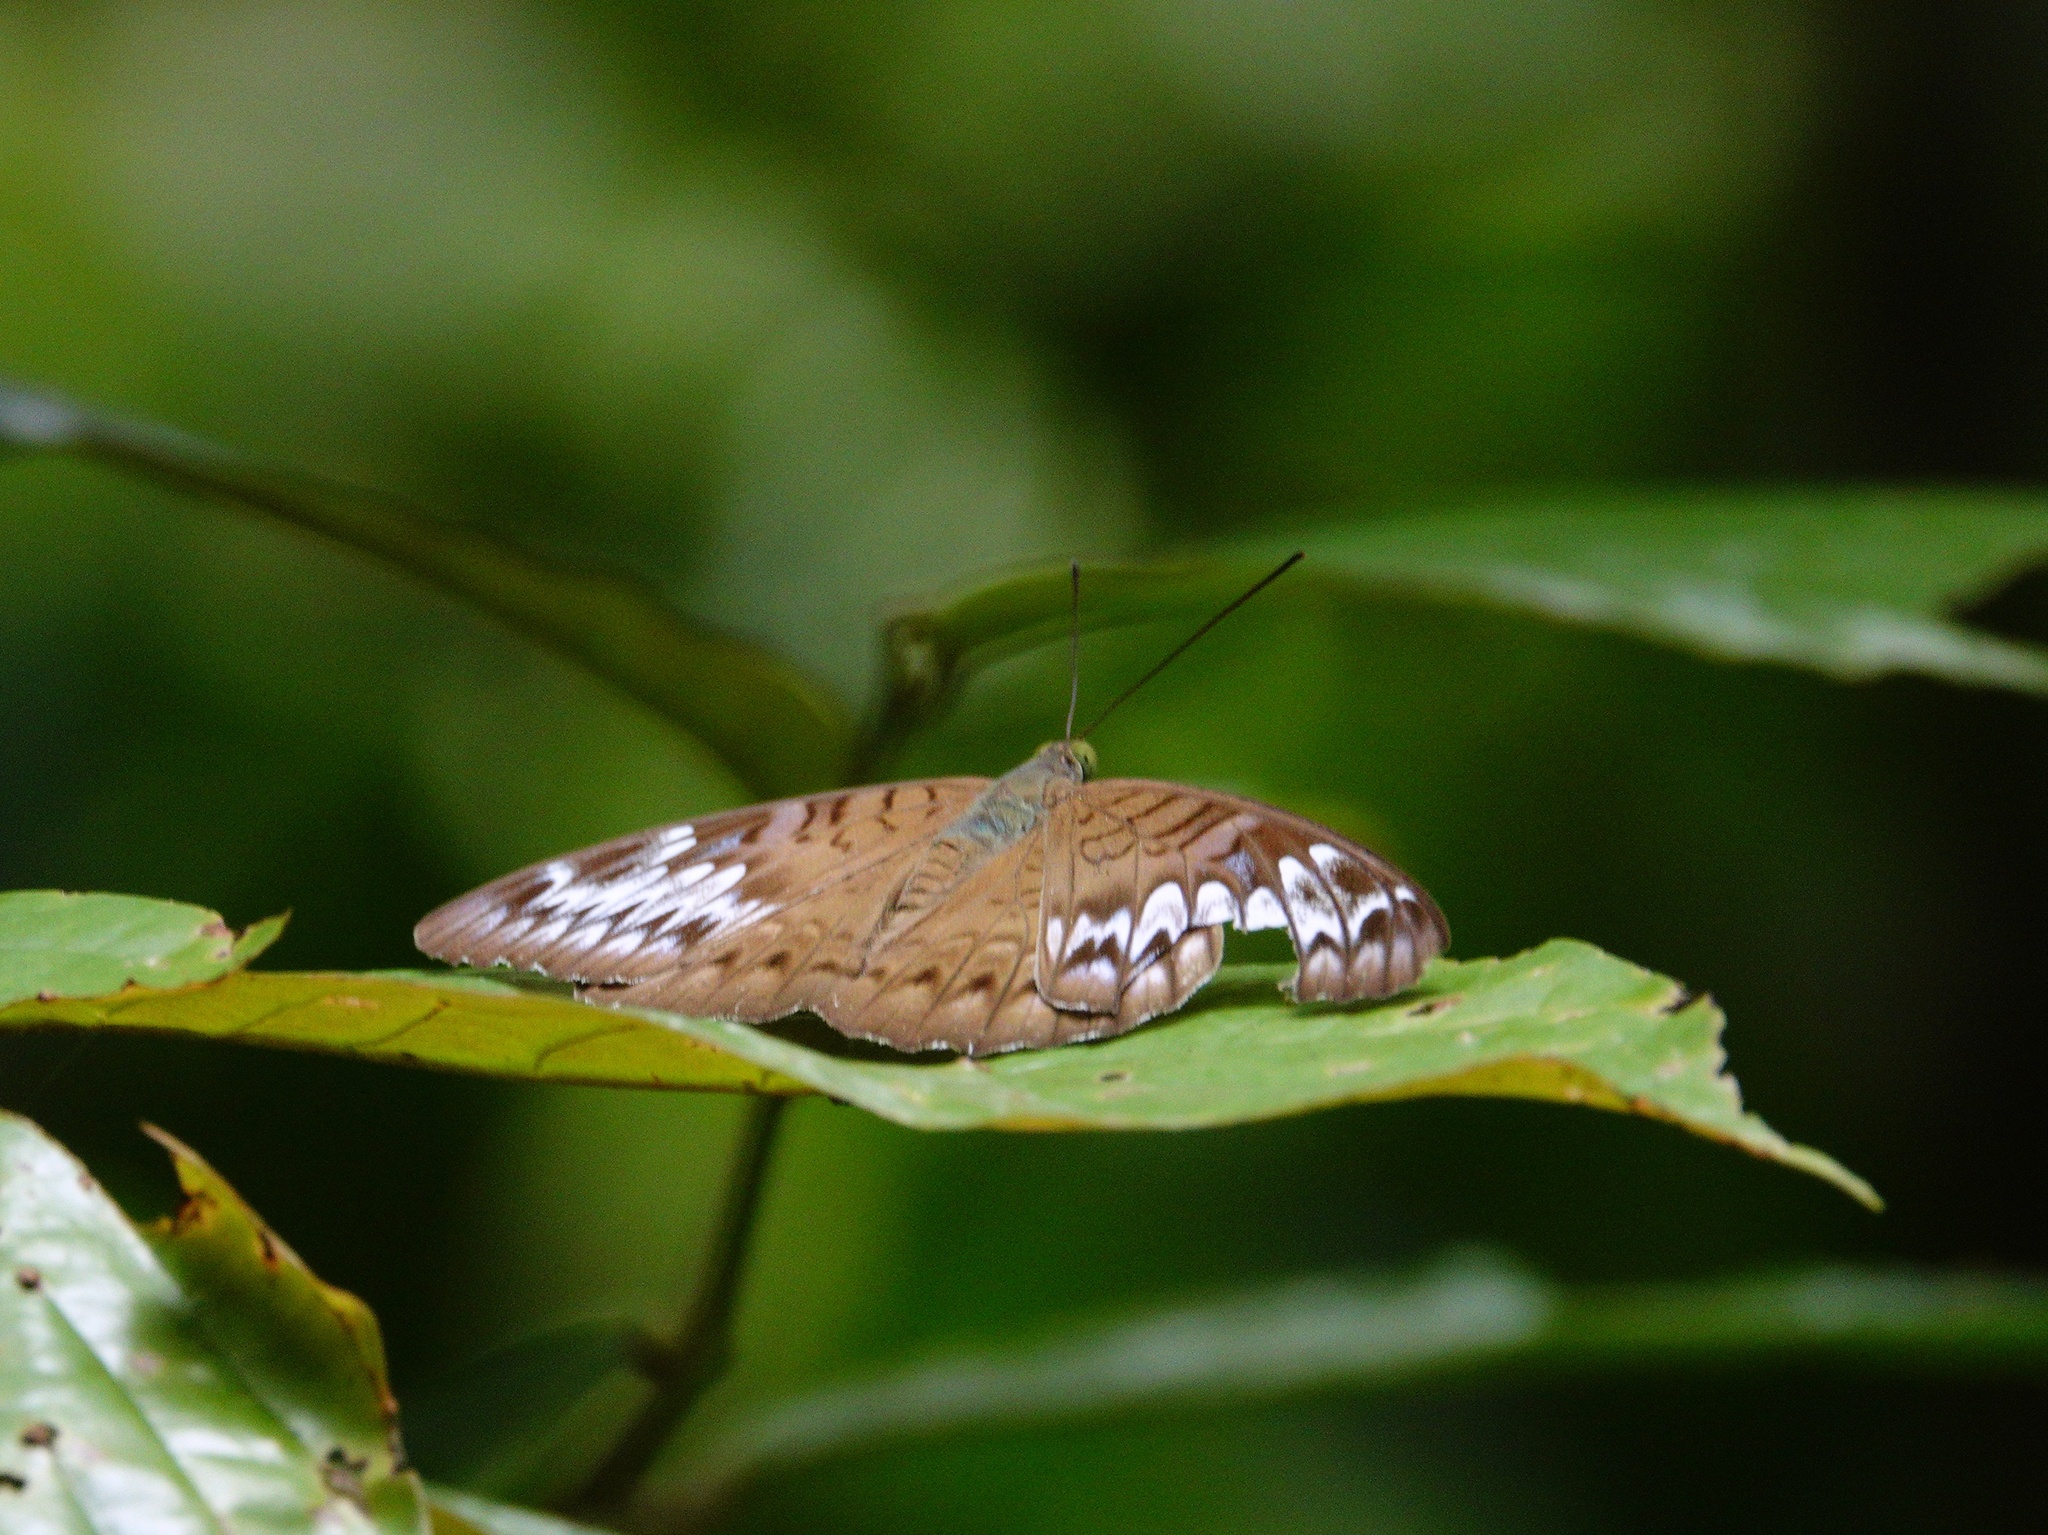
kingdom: Animalia
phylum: Arthropoda
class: Insecta
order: Lepidoptera
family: Nymphalidae
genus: Tanaecia
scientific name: Tanaecia pelea
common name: Malay viscount
